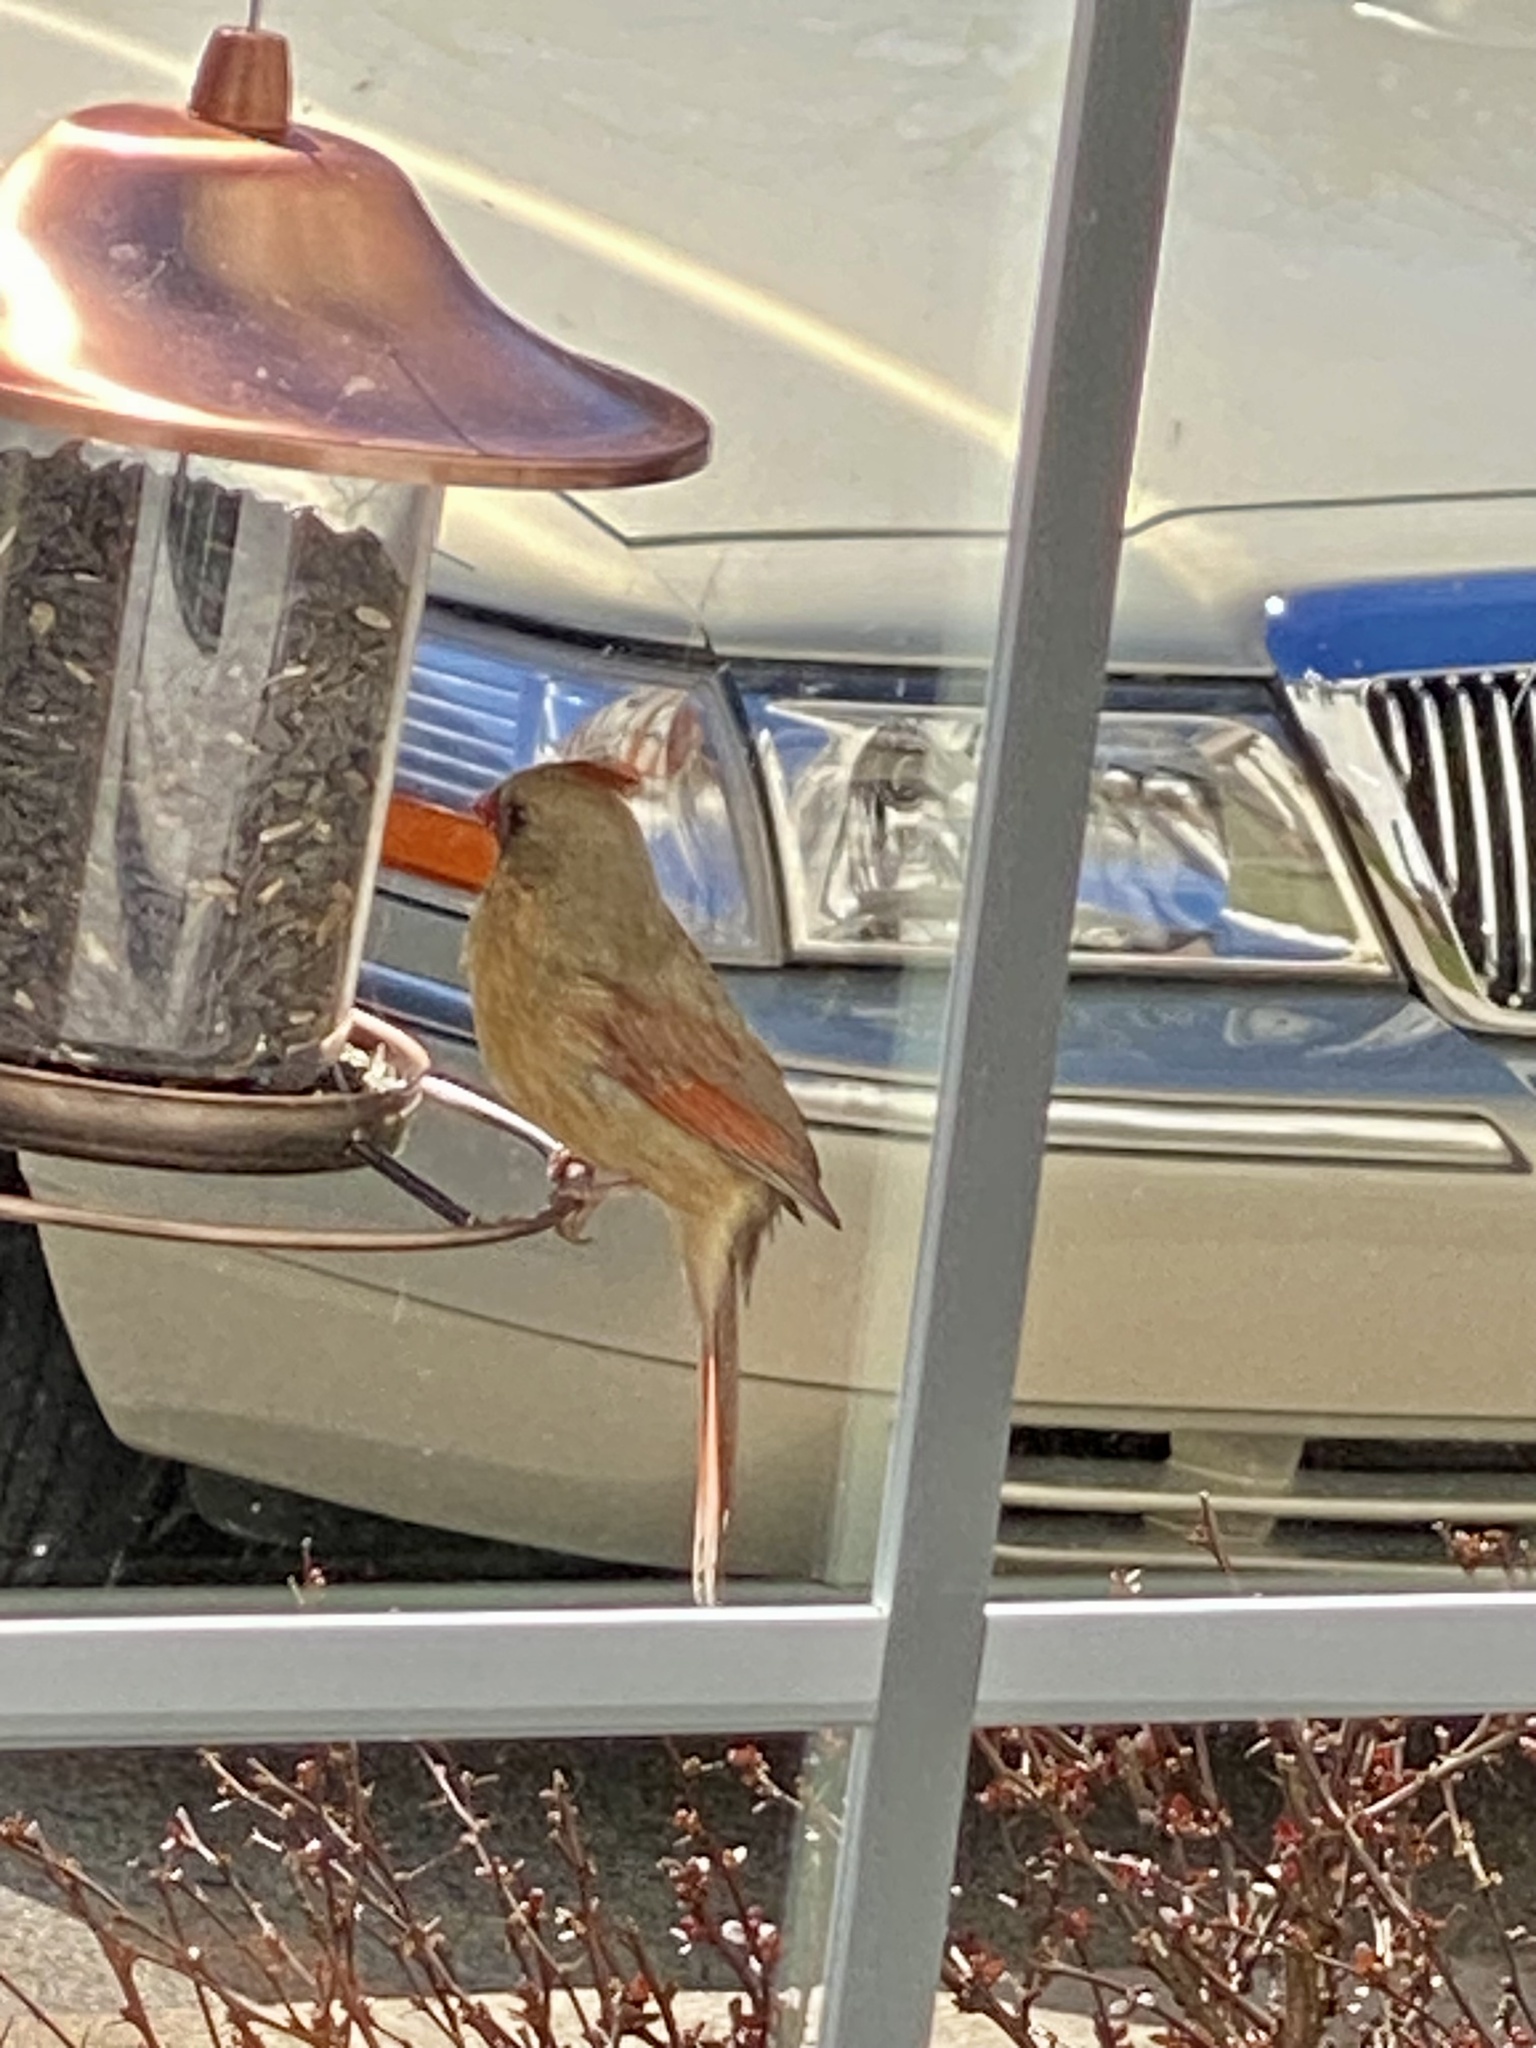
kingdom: Animalia
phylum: Chordata
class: Aves
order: Passeriformes
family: Cardinalidae
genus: Cardinalis
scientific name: Cardinalis cardinalis
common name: Northern cardinal
